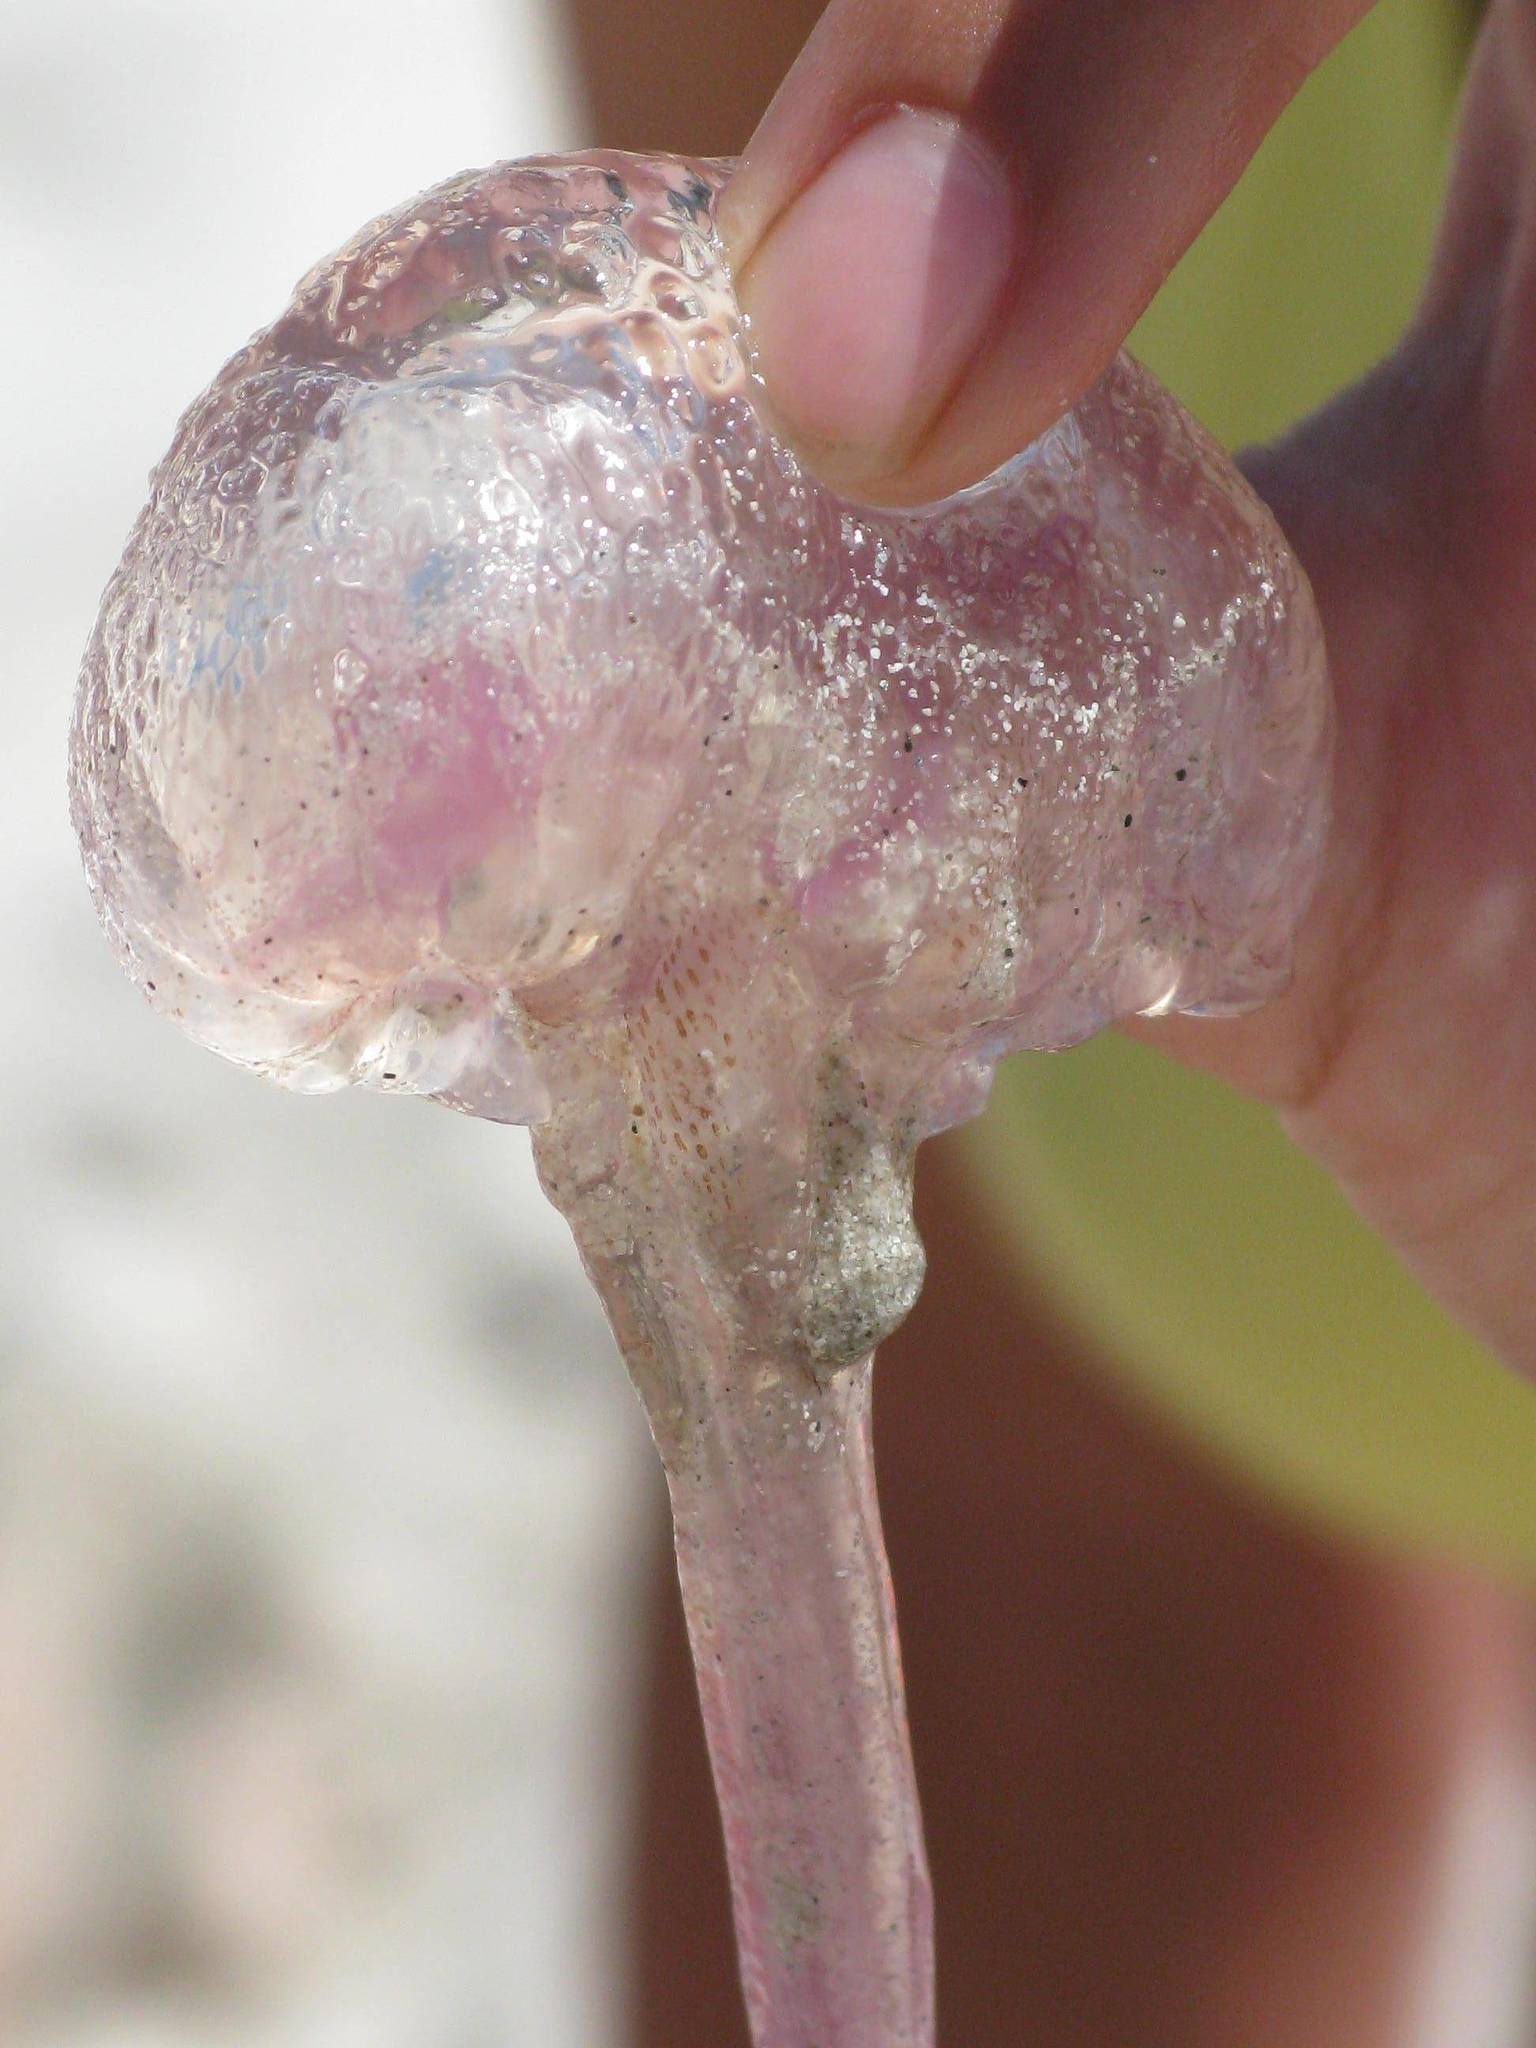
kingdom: Animalia
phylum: Cnidaria
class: Scyphozoa
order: Semaeostomeae
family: Pelagiidae
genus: Pelagia
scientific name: Pelagia noctiluca
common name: Mauve stinger
